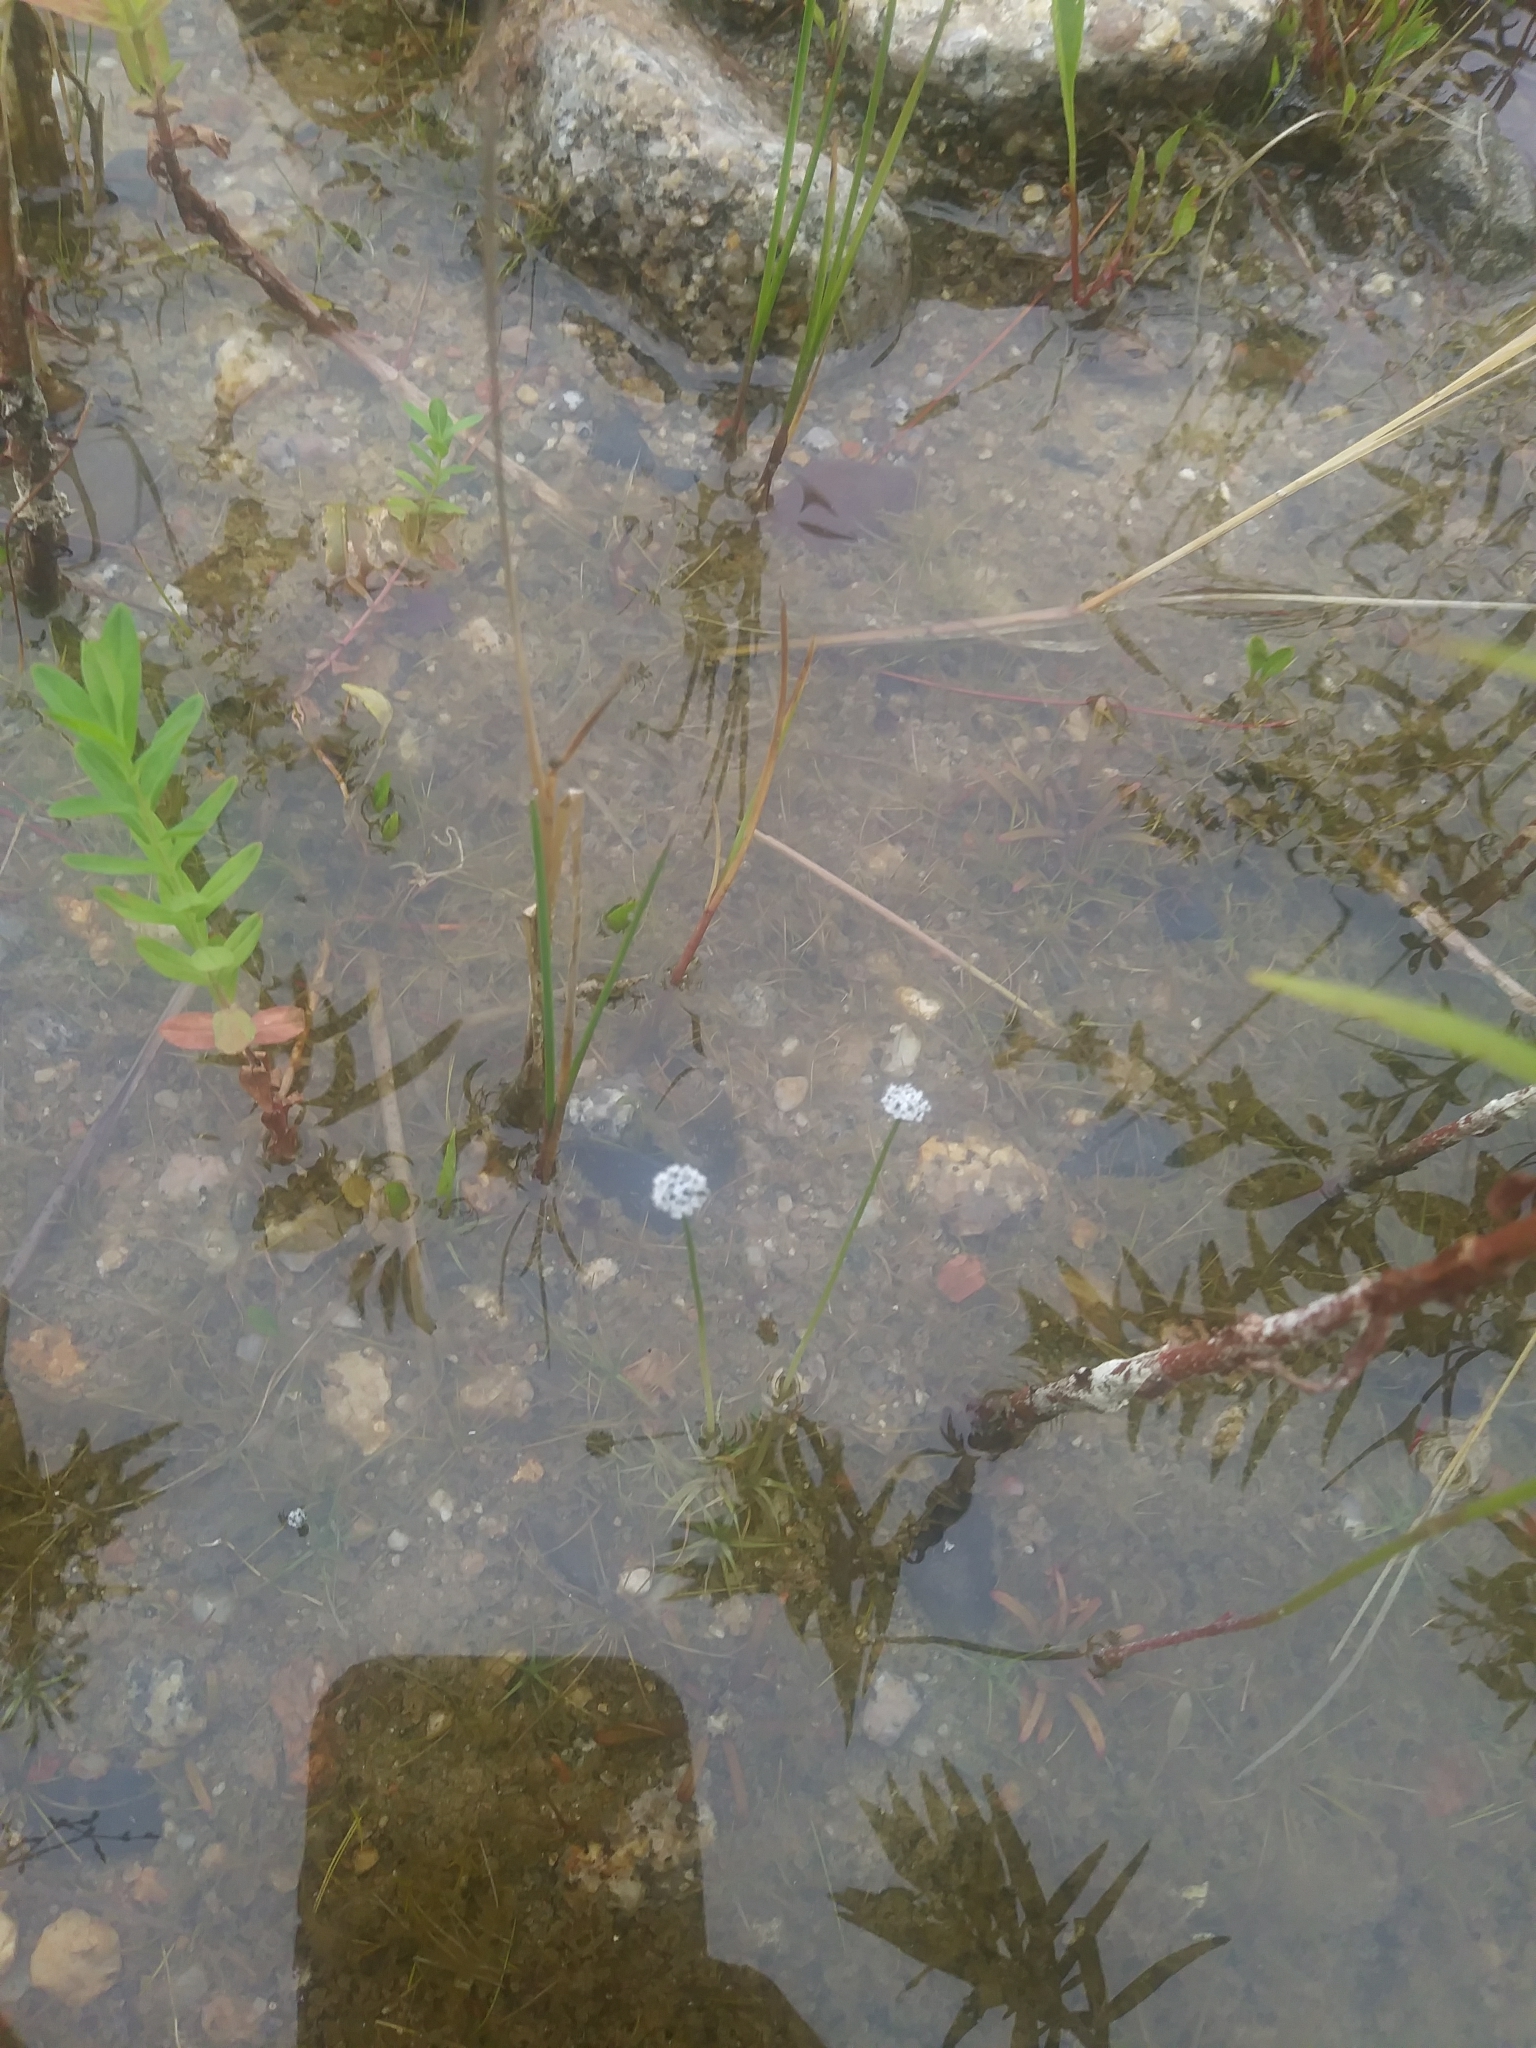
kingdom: Plantae
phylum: Tracheophyta
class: Liliopsida
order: Poales
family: Eriocaulaceae
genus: Eriocaulon
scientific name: Eriocaulon aquaticum
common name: Pipewort
